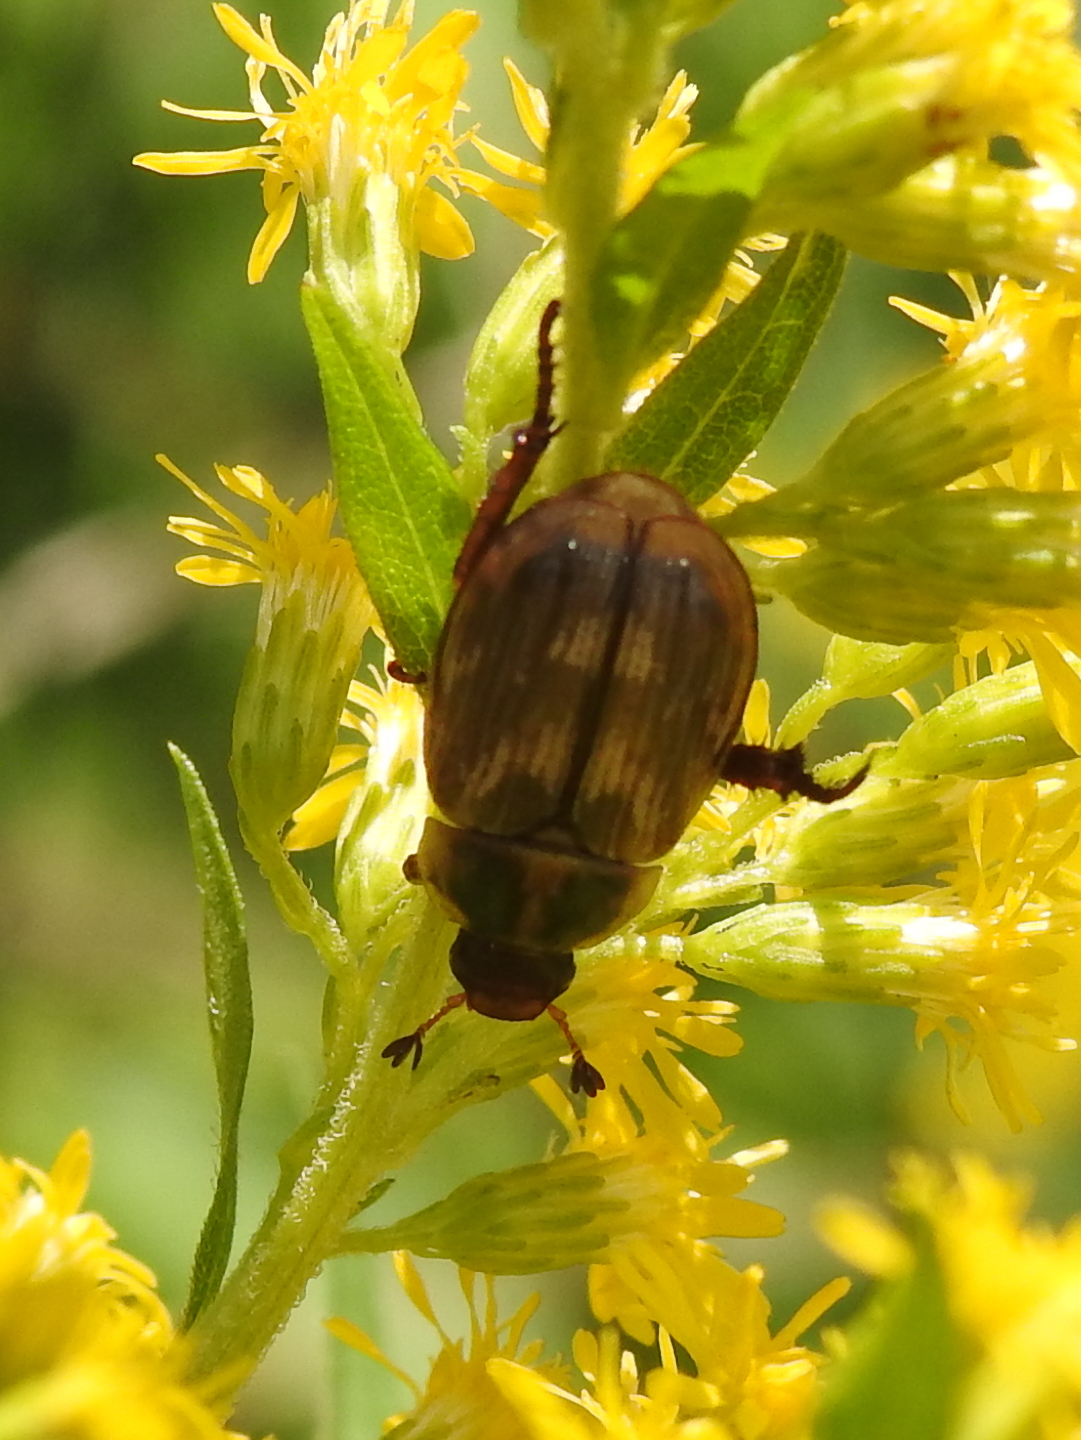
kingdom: Animalia
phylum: Arthropoda
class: Insecta
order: Coleoptera
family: Scarabaeidae
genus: Exomala
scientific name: Exomala orientalis
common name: Oriental beetle
